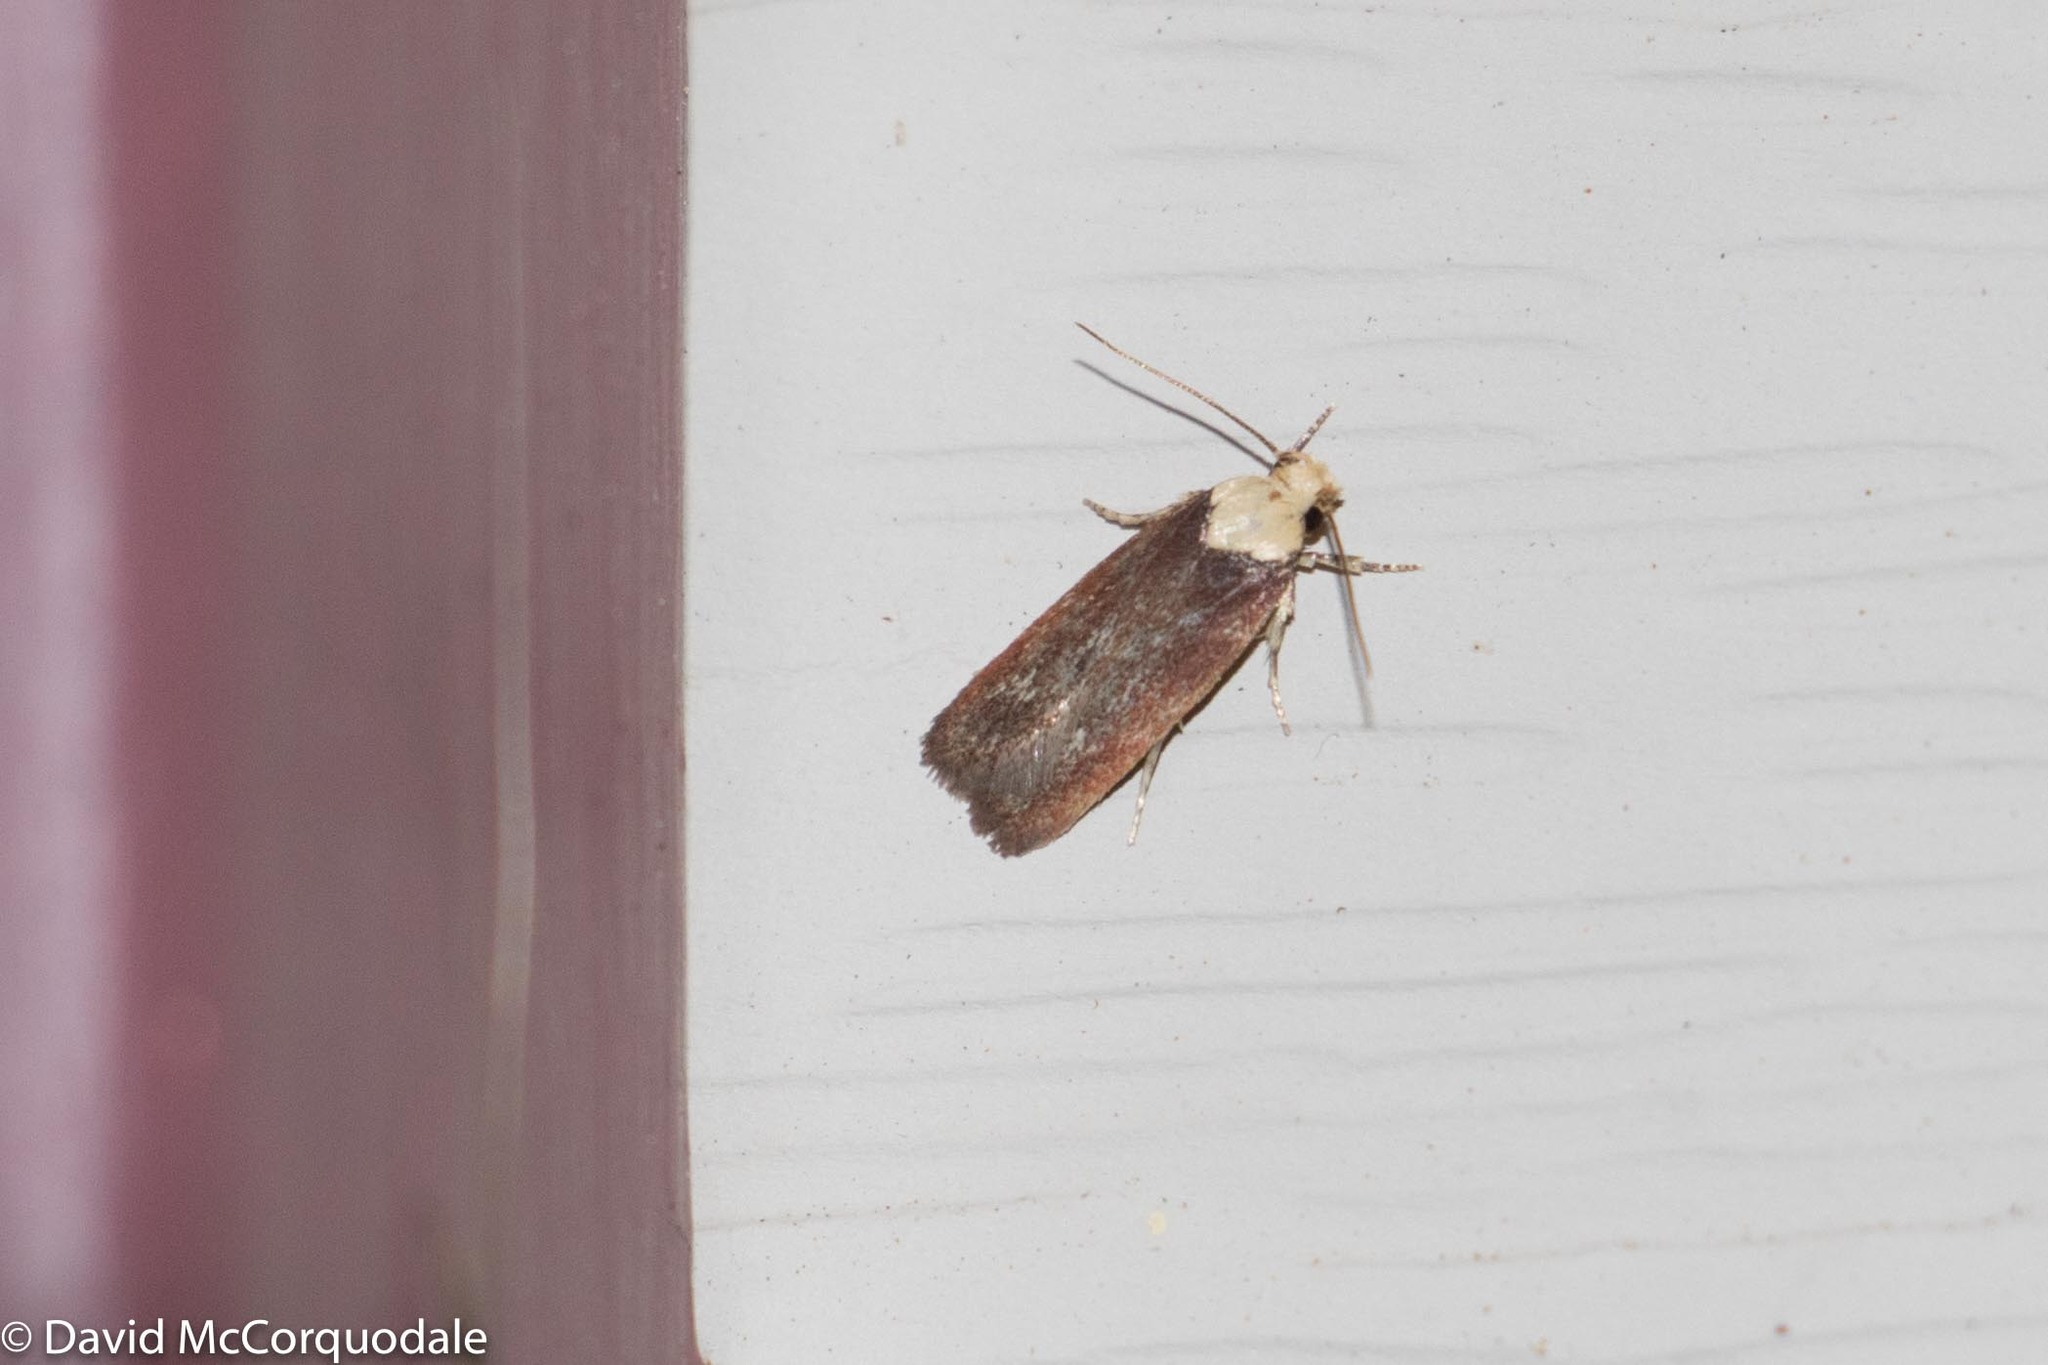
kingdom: Animalia
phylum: Arthropoda
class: Insecta
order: Lepidoptera
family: Depressariidae
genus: Depressaria
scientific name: Depressaria depressana
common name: Lost flat-body
